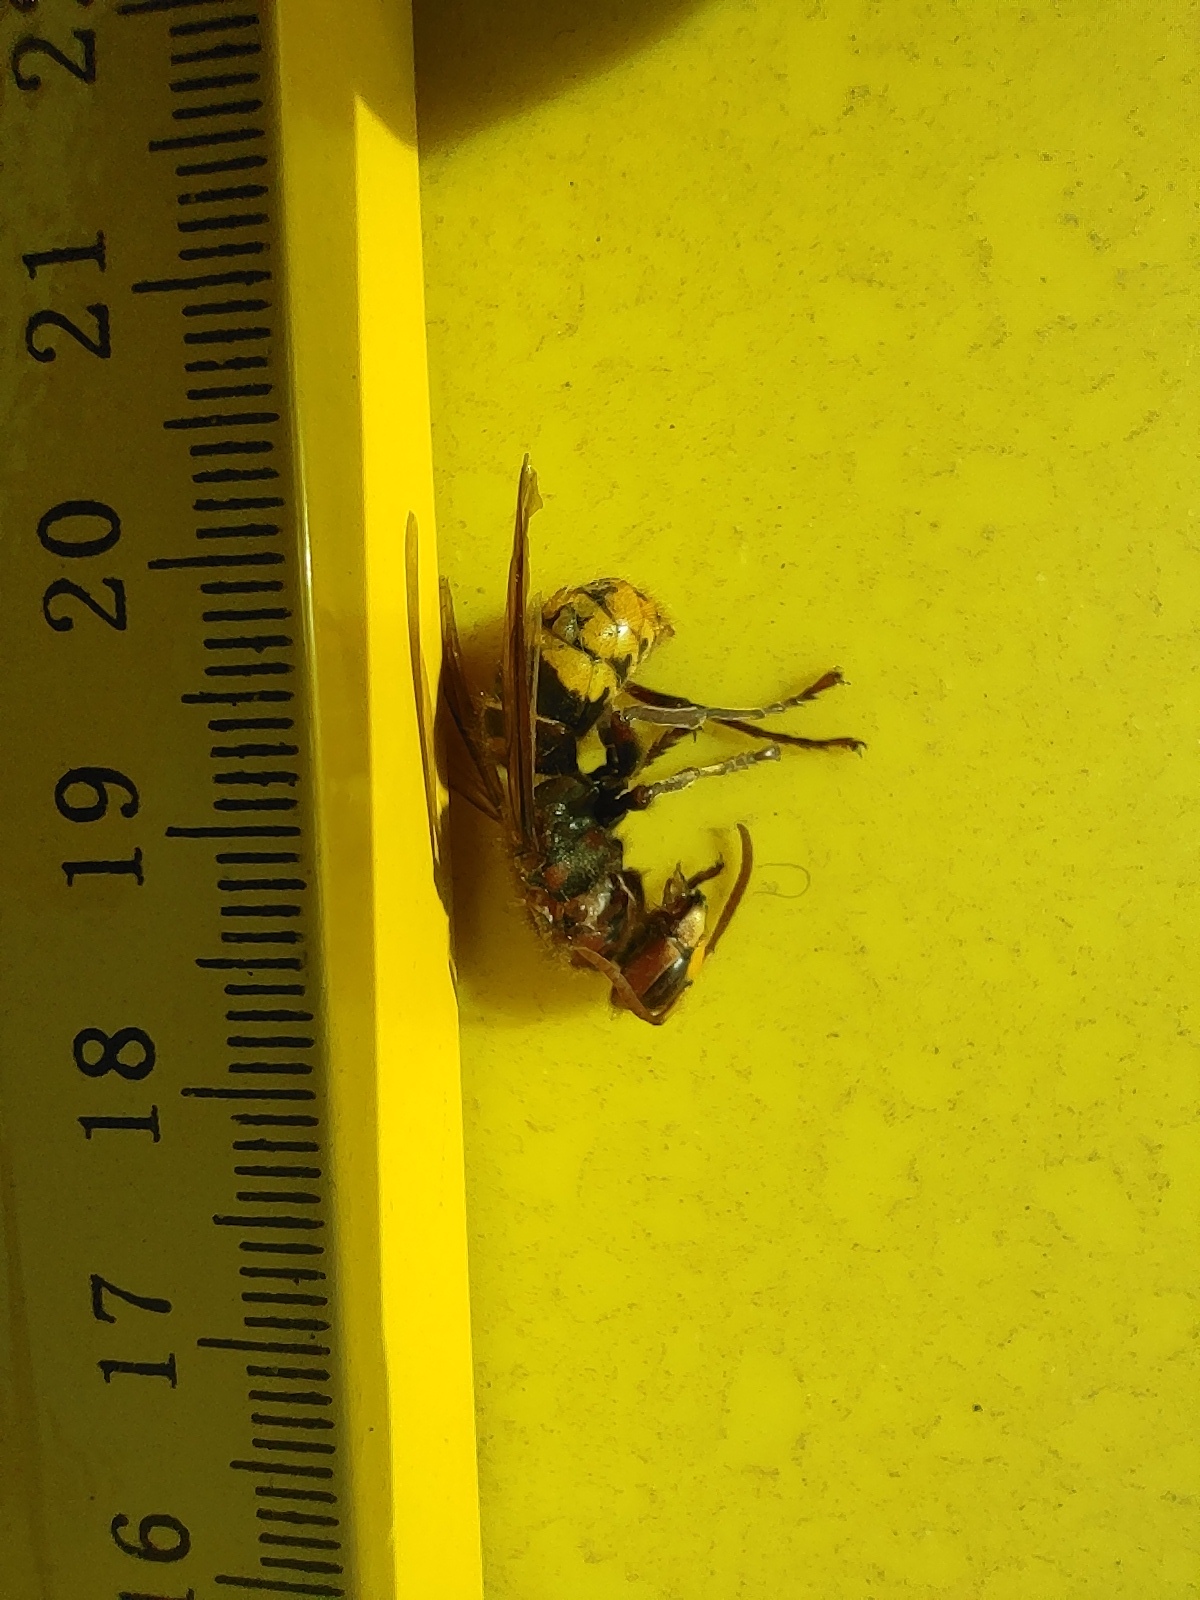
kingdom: Animalia
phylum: Arthropoda
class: Insecta
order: Hymenoptera
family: Vespidae
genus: Vespa
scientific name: Vespa crabro
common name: Hornet
